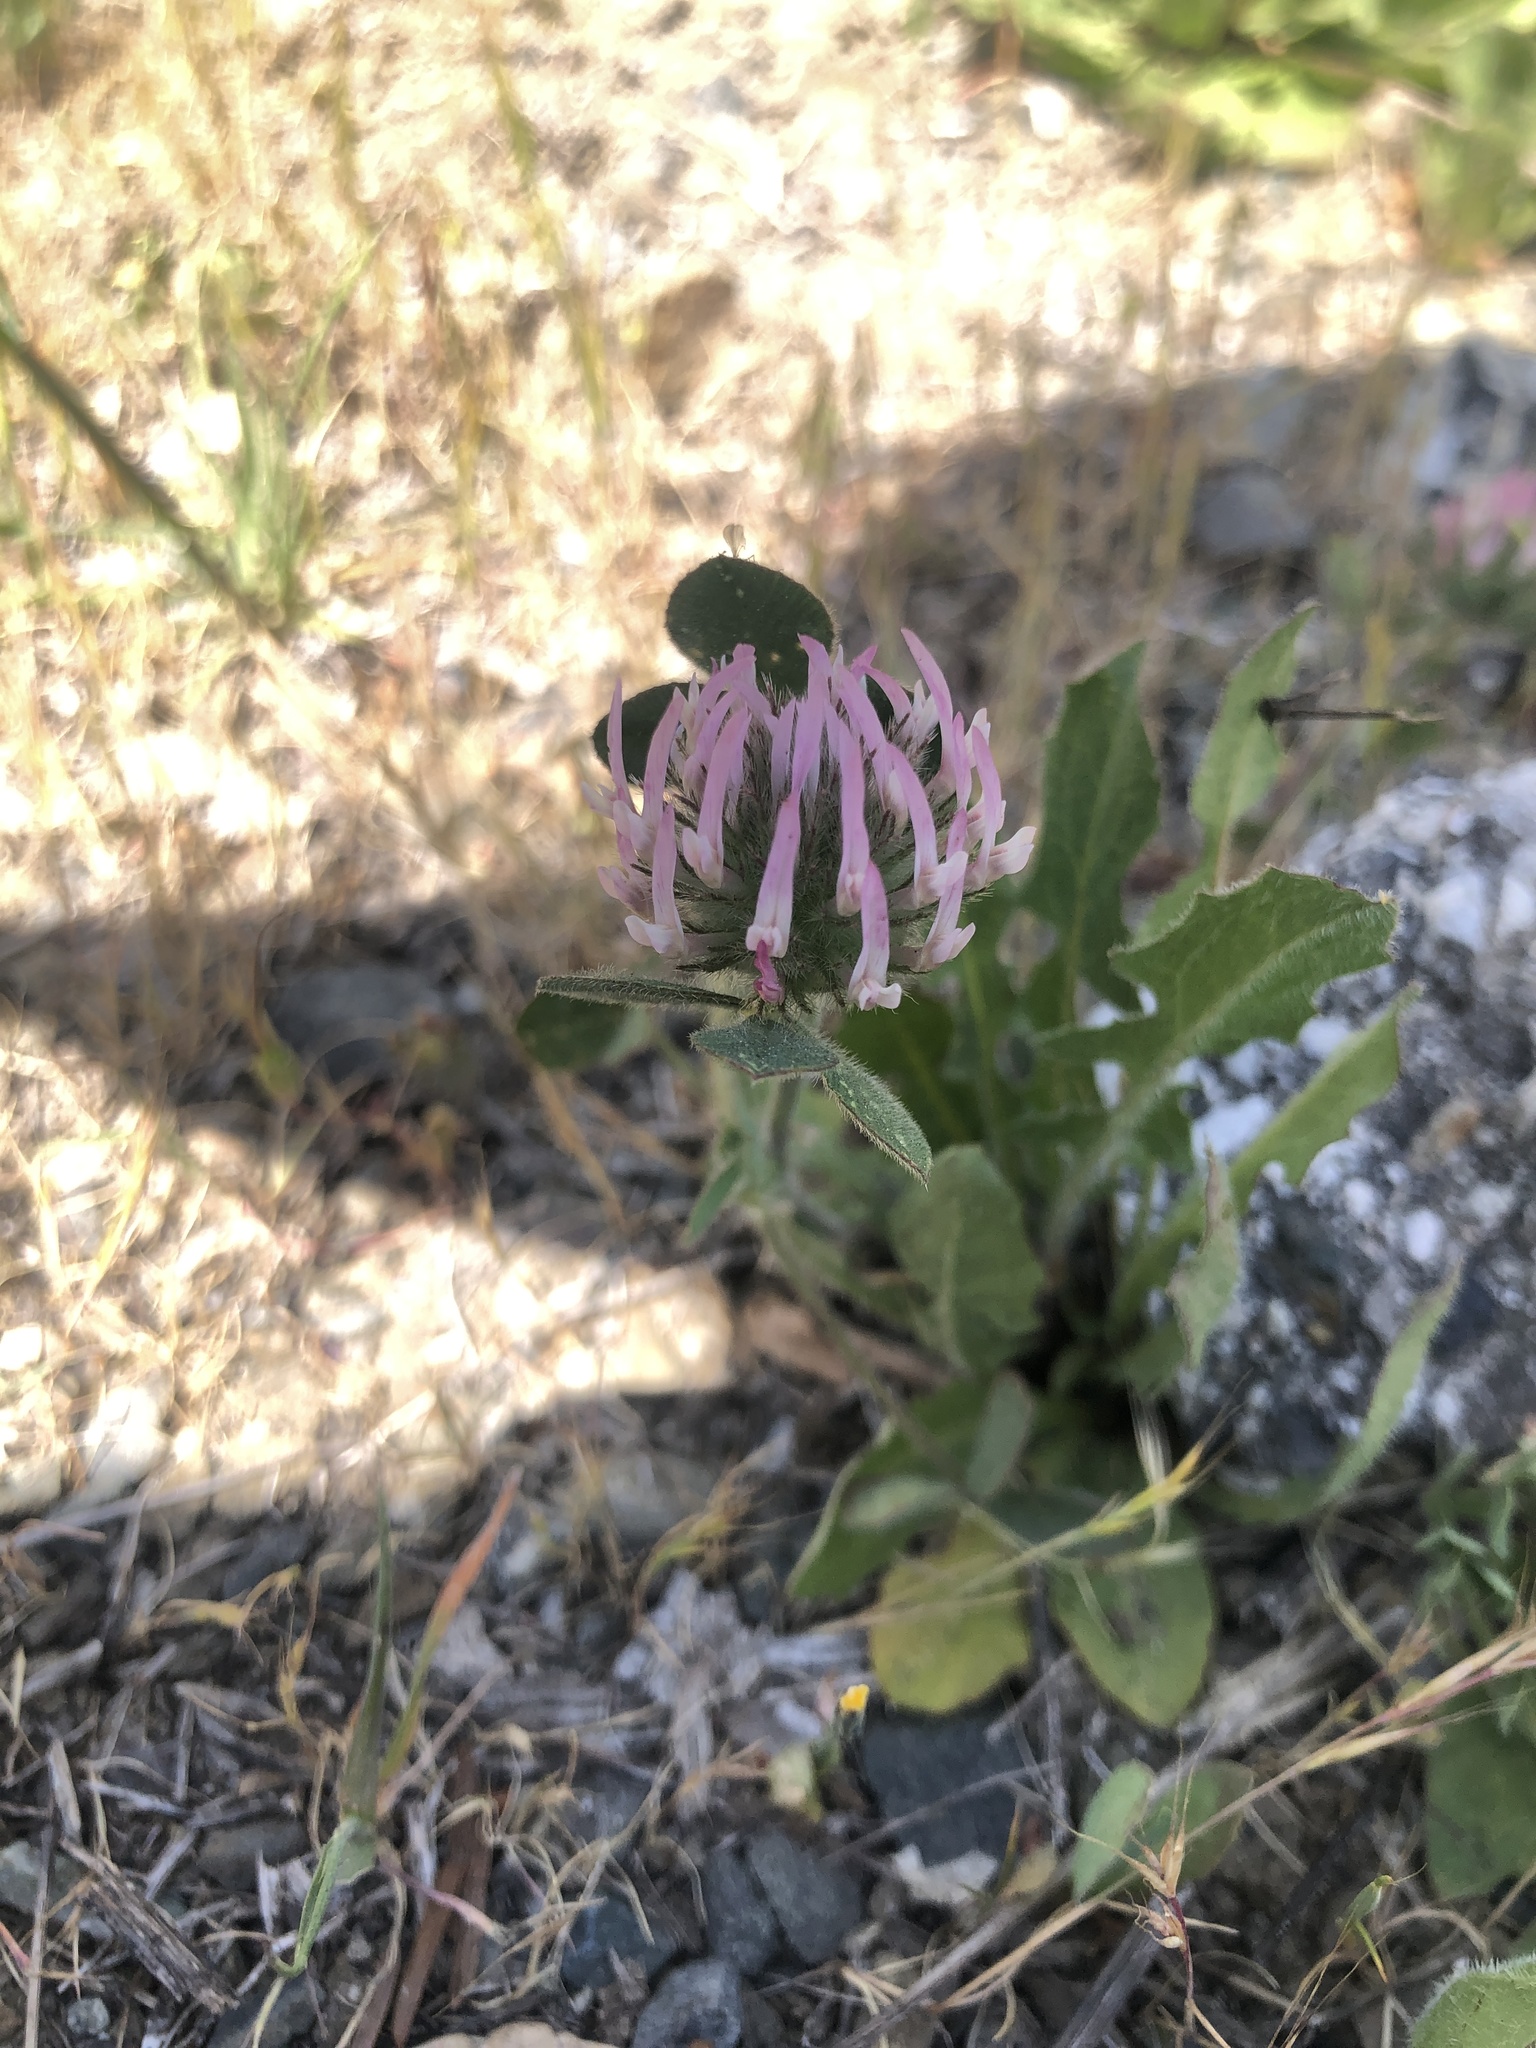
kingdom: Plantae
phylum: Tracheophyta
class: Magnoliopsida
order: Fabales
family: Fabaceae
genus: Trifolium
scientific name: Trifolium hirtum
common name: Rose clover
